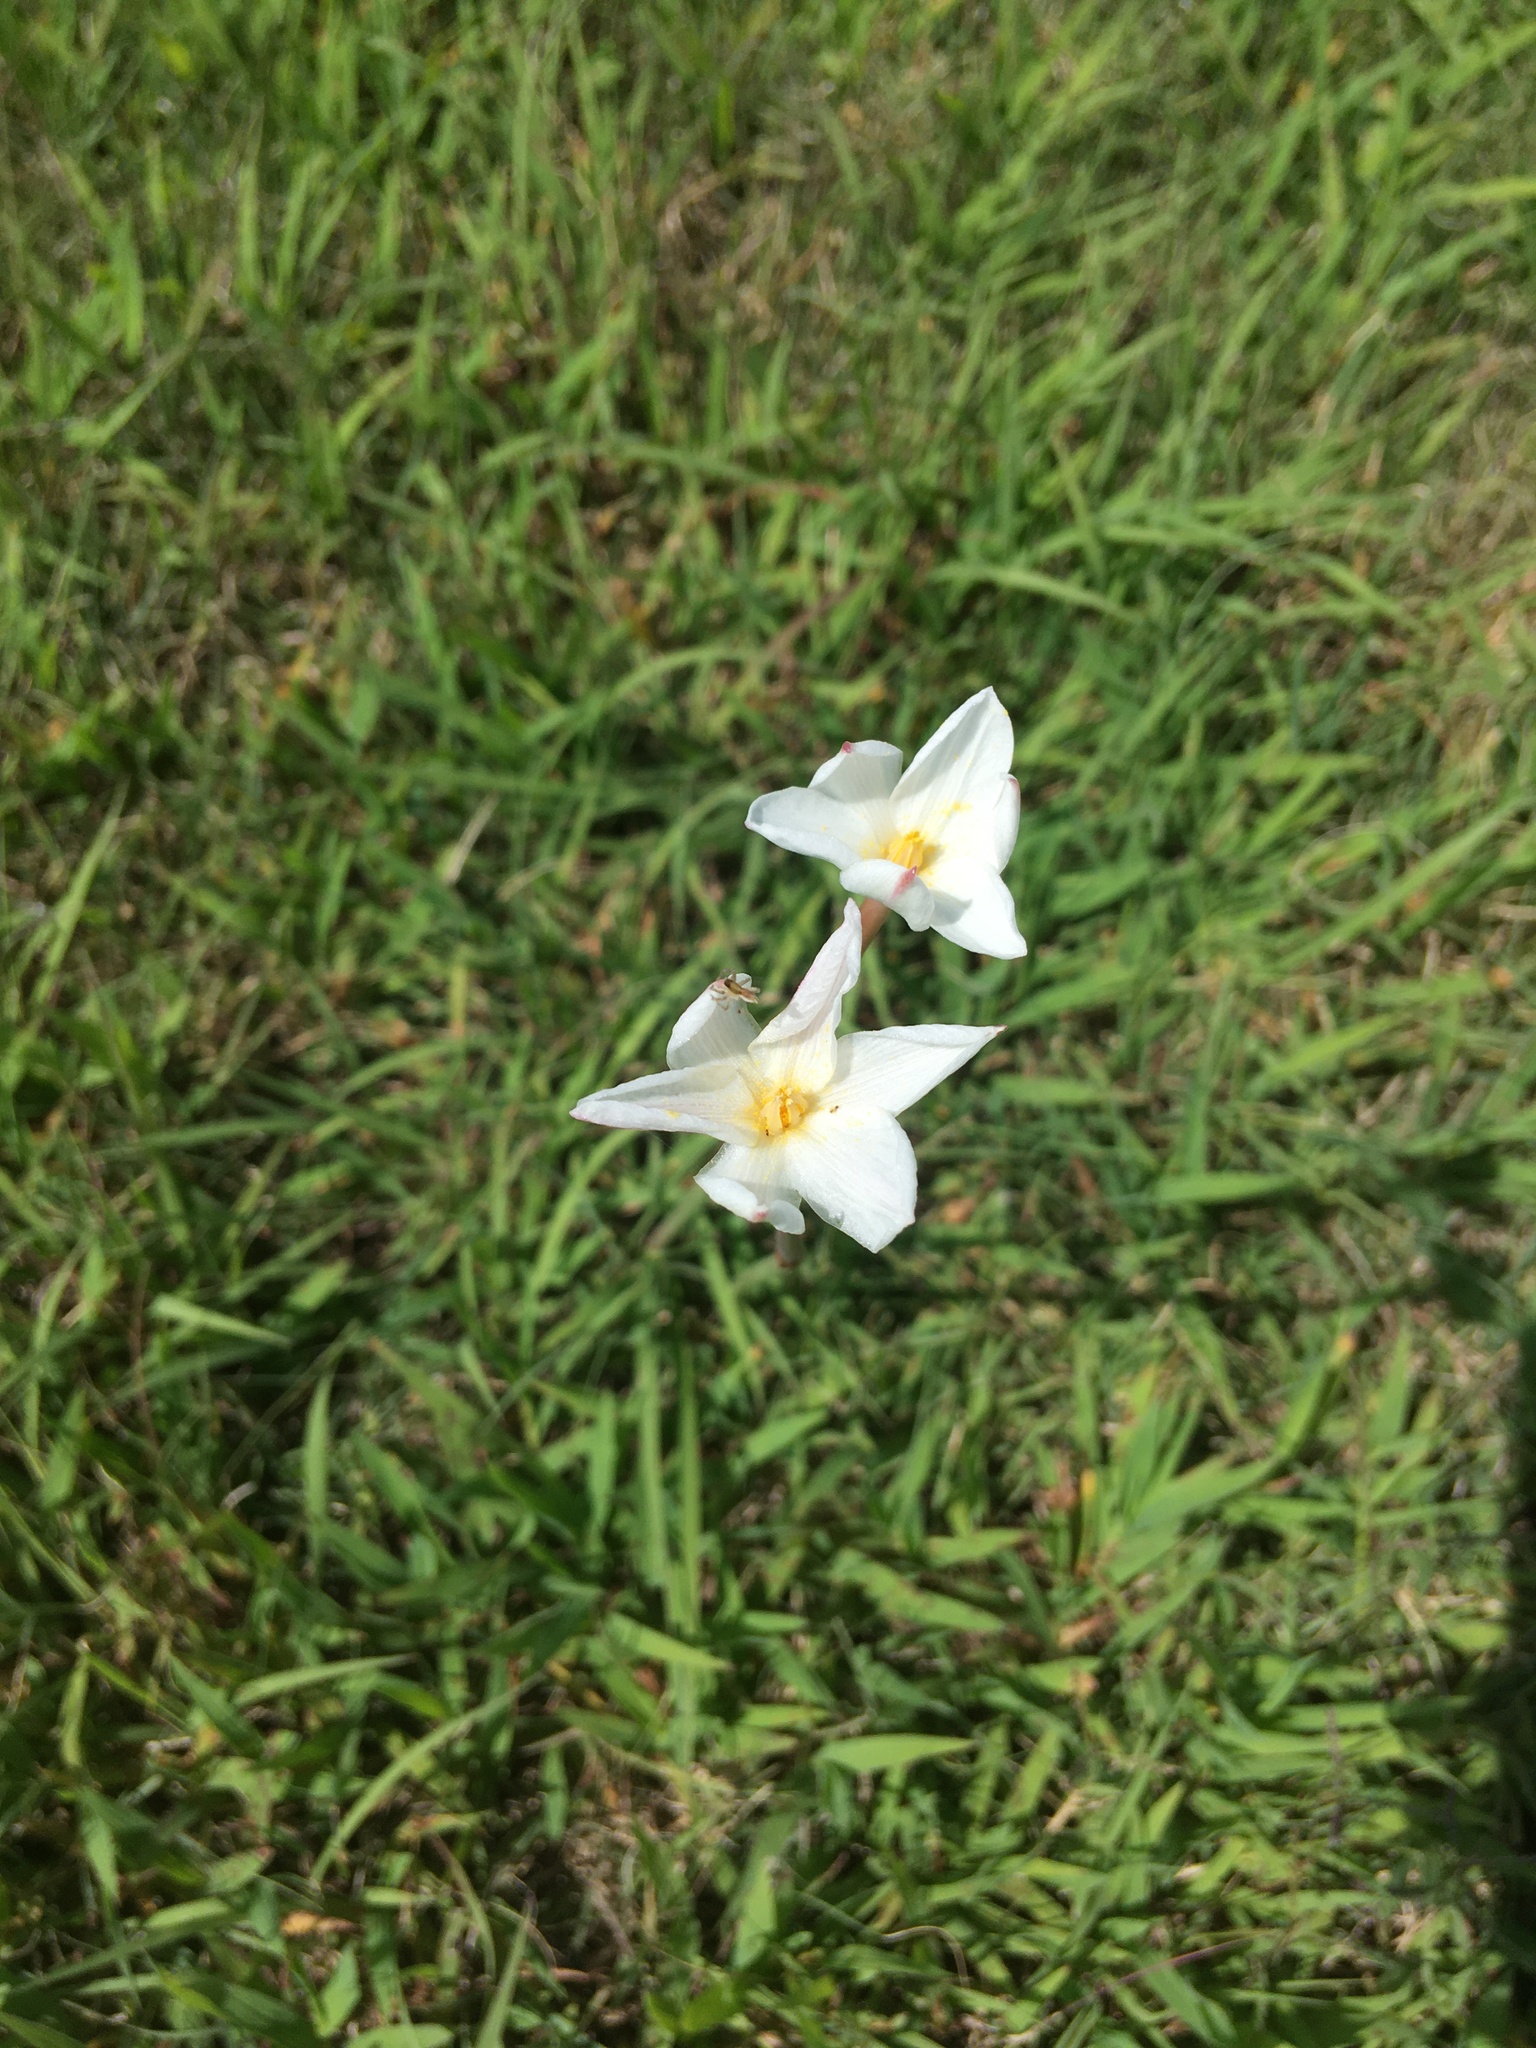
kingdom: Plantae
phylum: Tracheophyta
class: Liliopsida
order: Asparagales
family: Amaryllidaceae
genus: Zephyranthes
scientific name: Zephyranthes chlorosolen
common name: Evening rain-lily
